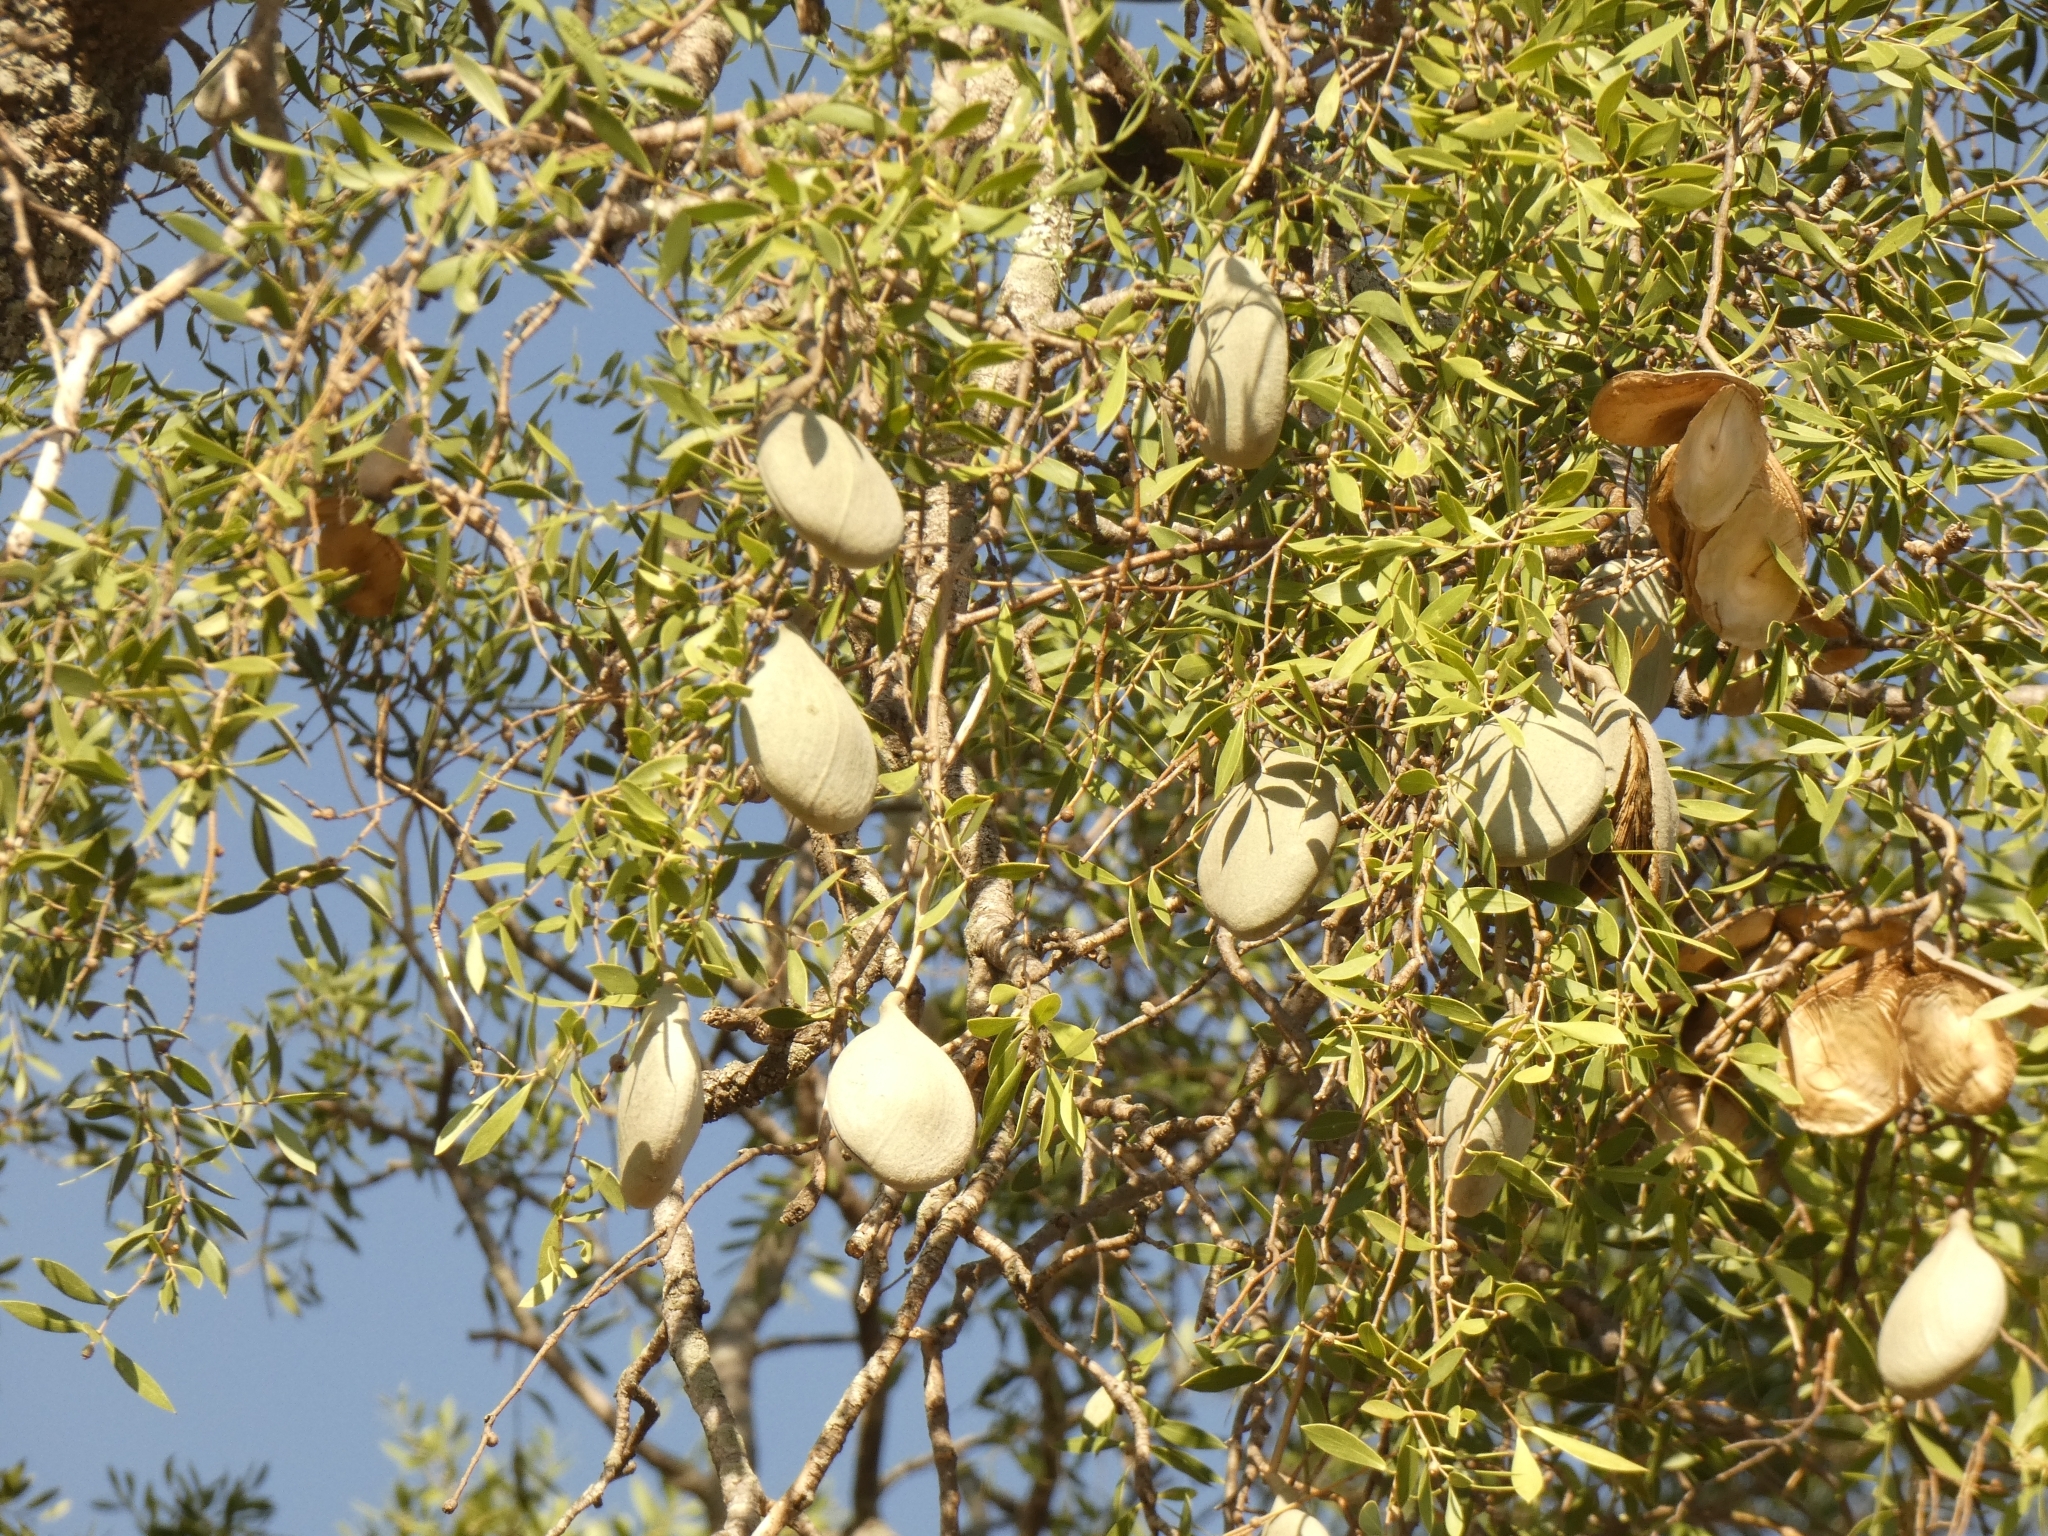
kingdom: Plantae
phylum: Tracheophyta
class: Magnoliopsida
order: Gentianales
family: Apocynaceae
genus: Aspidosperma
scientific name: Aspidosperma quebracho-blanco
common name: White quebracho
